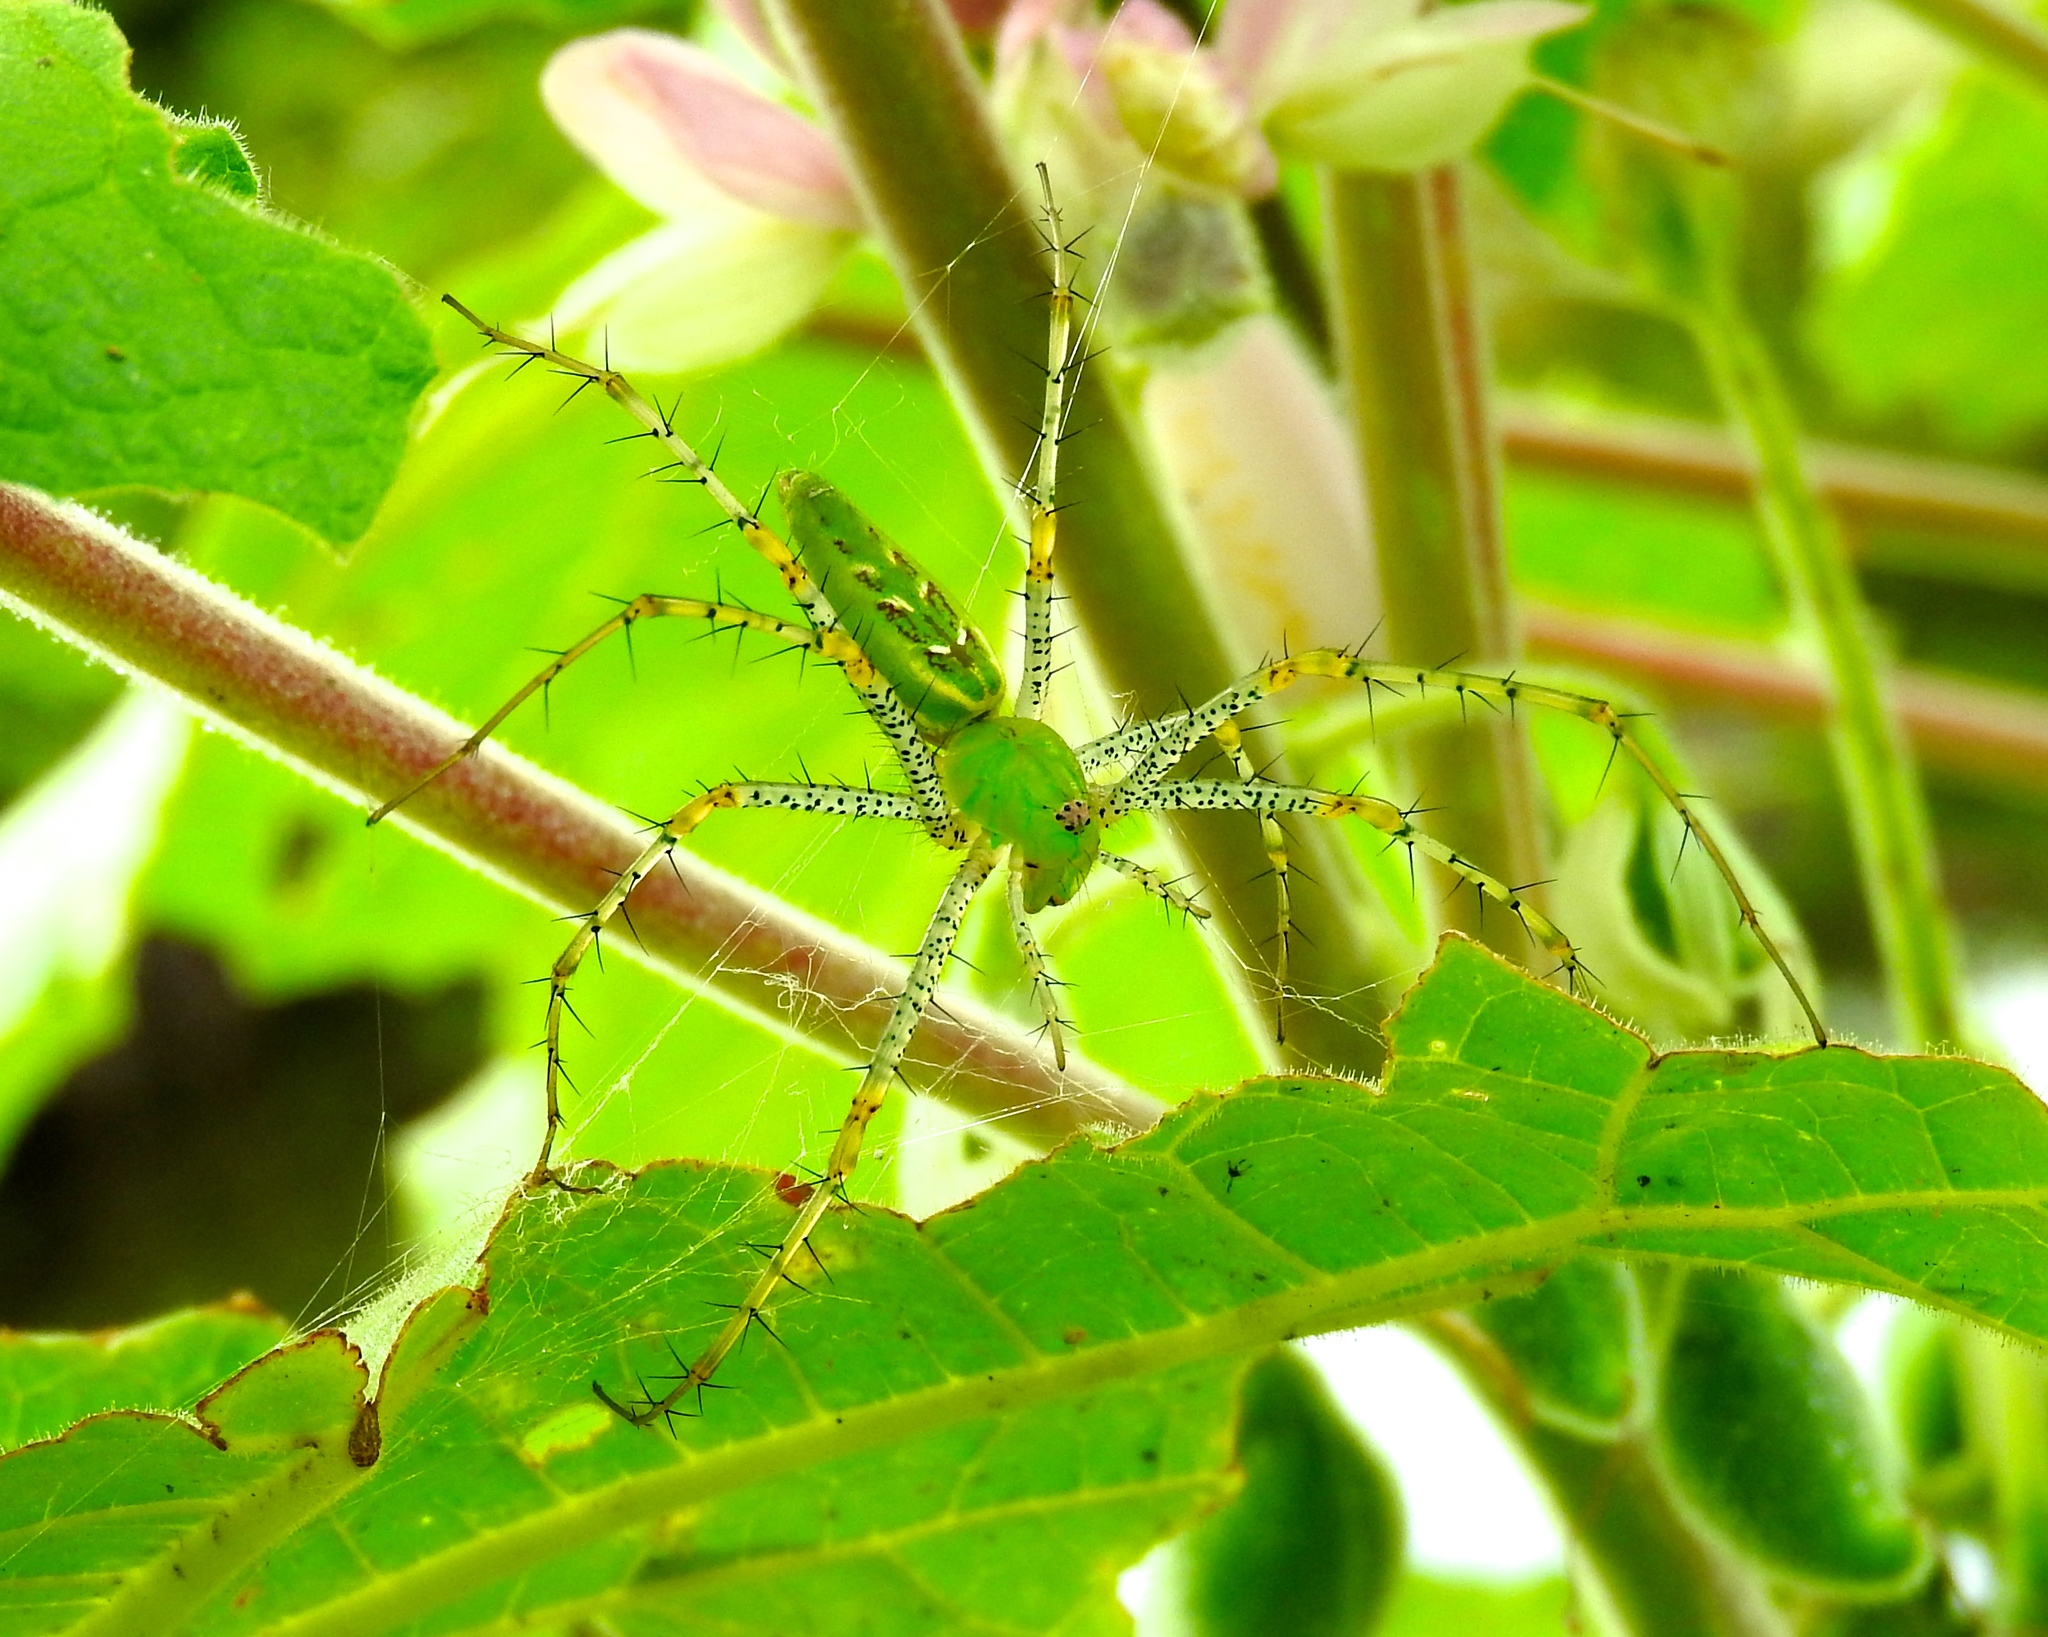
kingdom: Animalia
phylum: Arthropoda
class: Arachnida
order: Araneae
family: Oxyopidae
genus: Peucetia
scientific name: Peucetia viridans
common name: Lynx spiders
